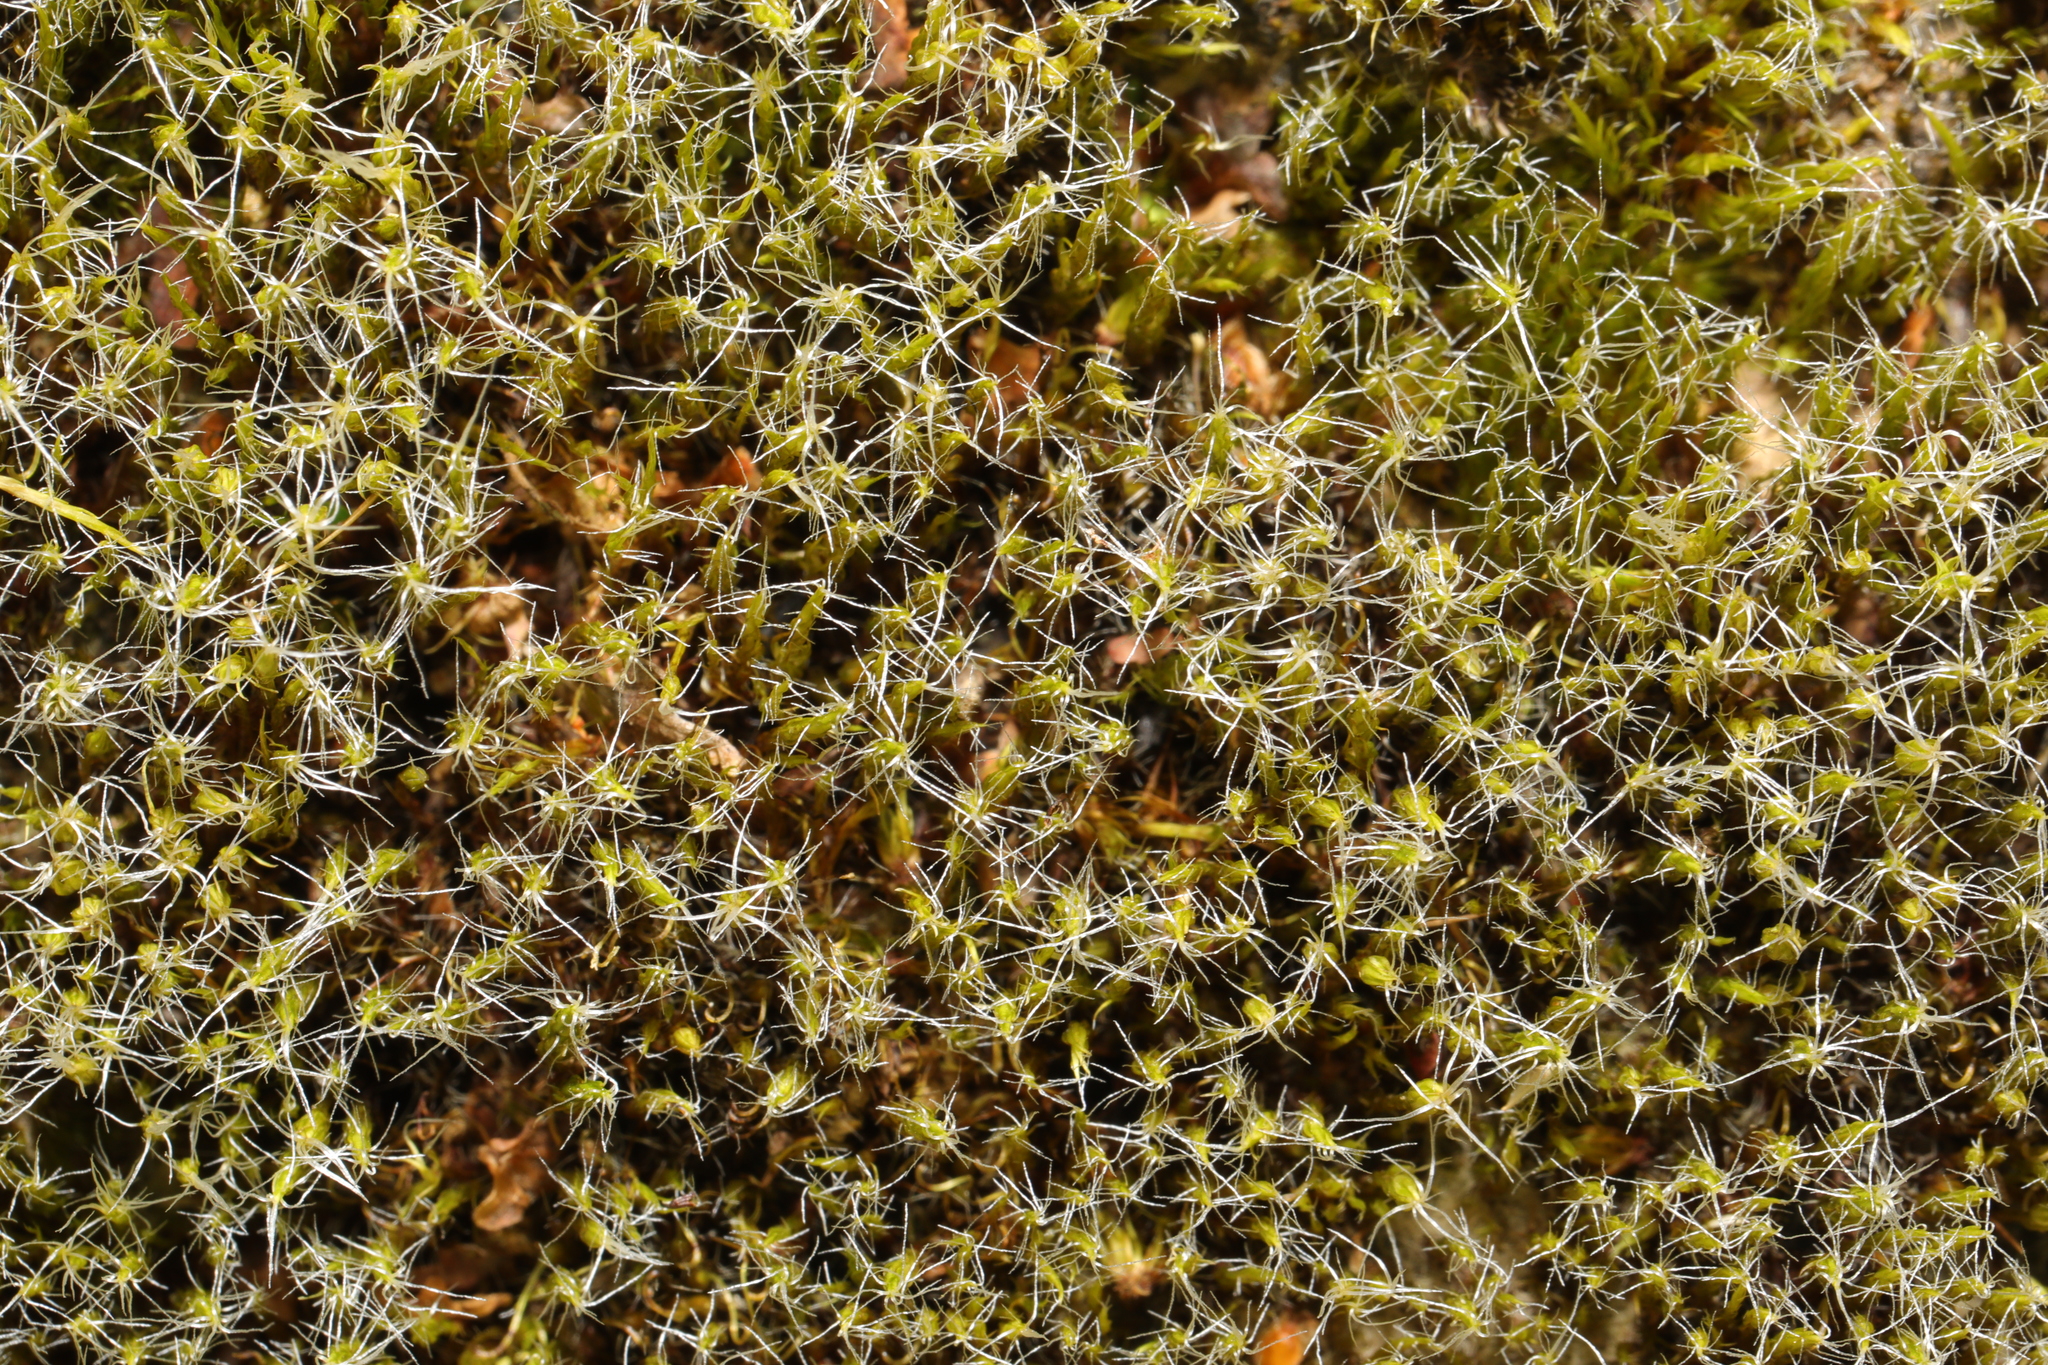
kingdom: Plantae
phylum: Bryophyta
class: Bryopsida
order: Dicranales
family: Leucobryaceae
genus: Campylopus
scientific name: Campylopus introflexus
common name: Heath star moss
